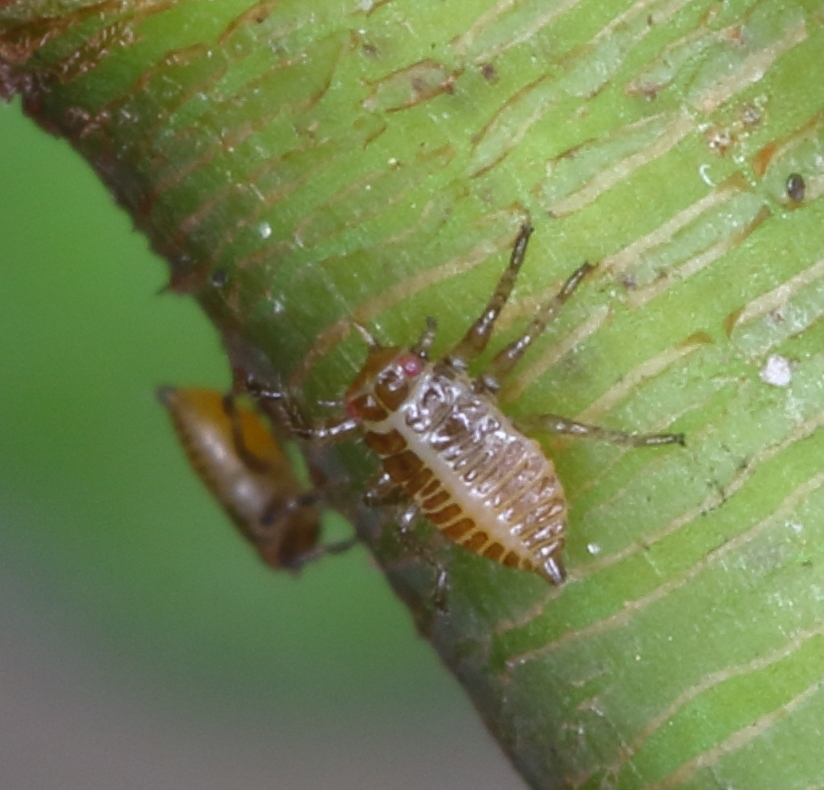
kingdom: Animalia
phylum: Arthropoda
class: Insecta
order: Hemiptera
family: Tettigometridae
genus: Nototettigometra
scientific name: Nototettigometra patruelis
